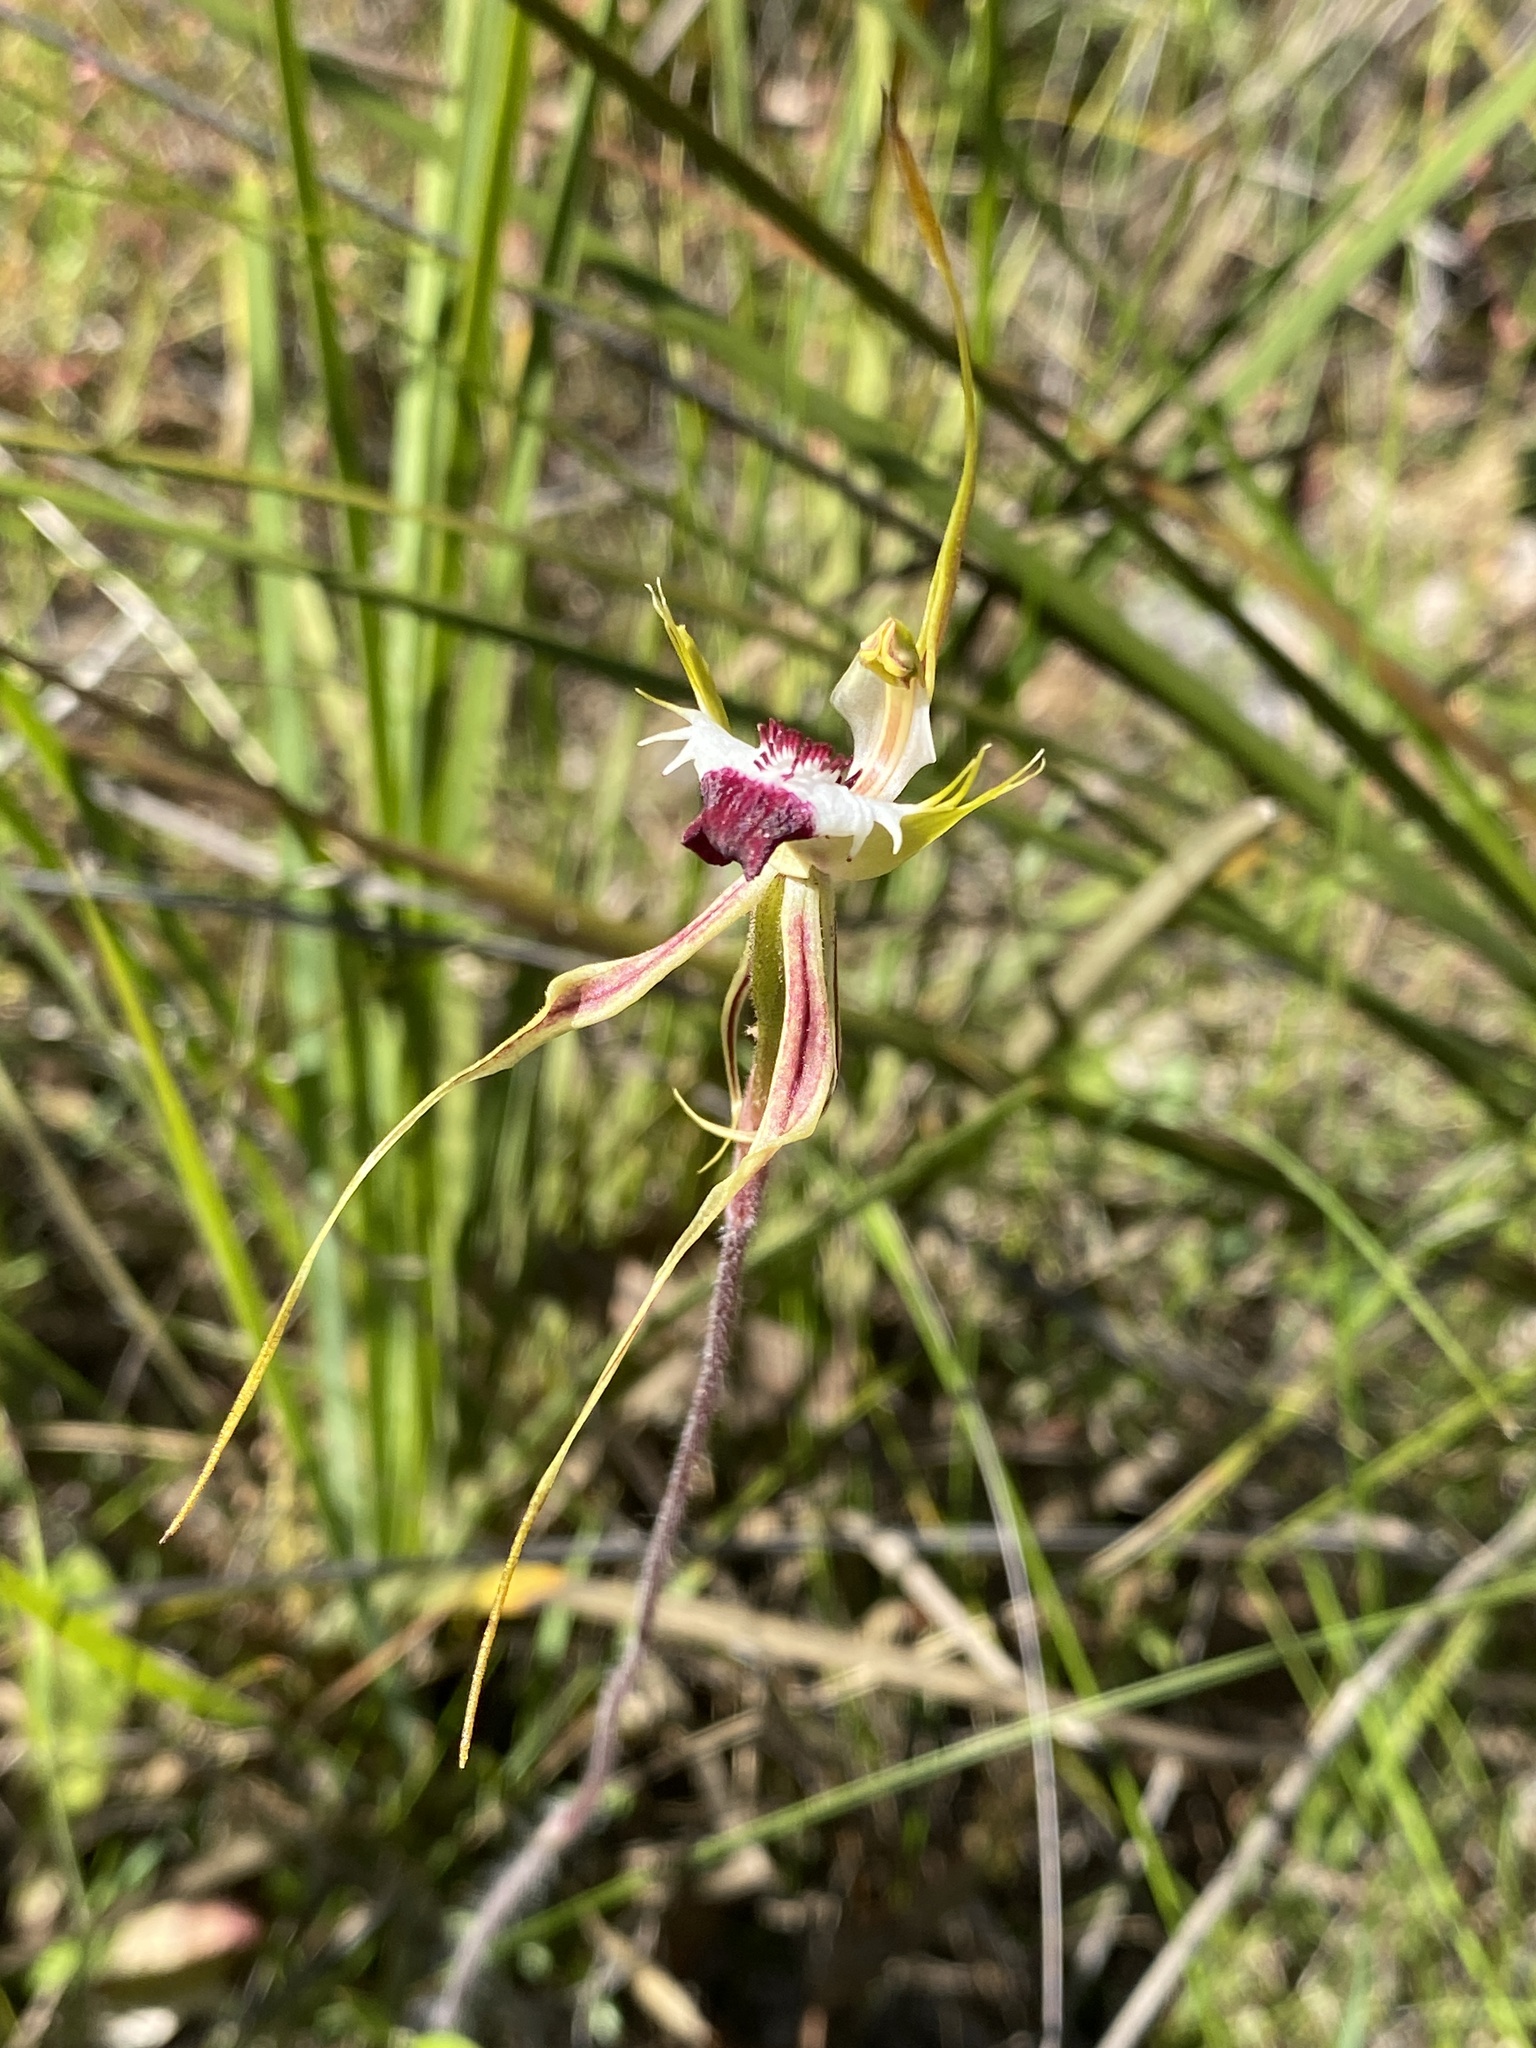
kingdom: Plantae
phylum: Tracheophyta
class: Liliopsida
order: Asparagales
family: Orchidaceae
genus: Caladenia
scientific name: Caladenia tentaculata
